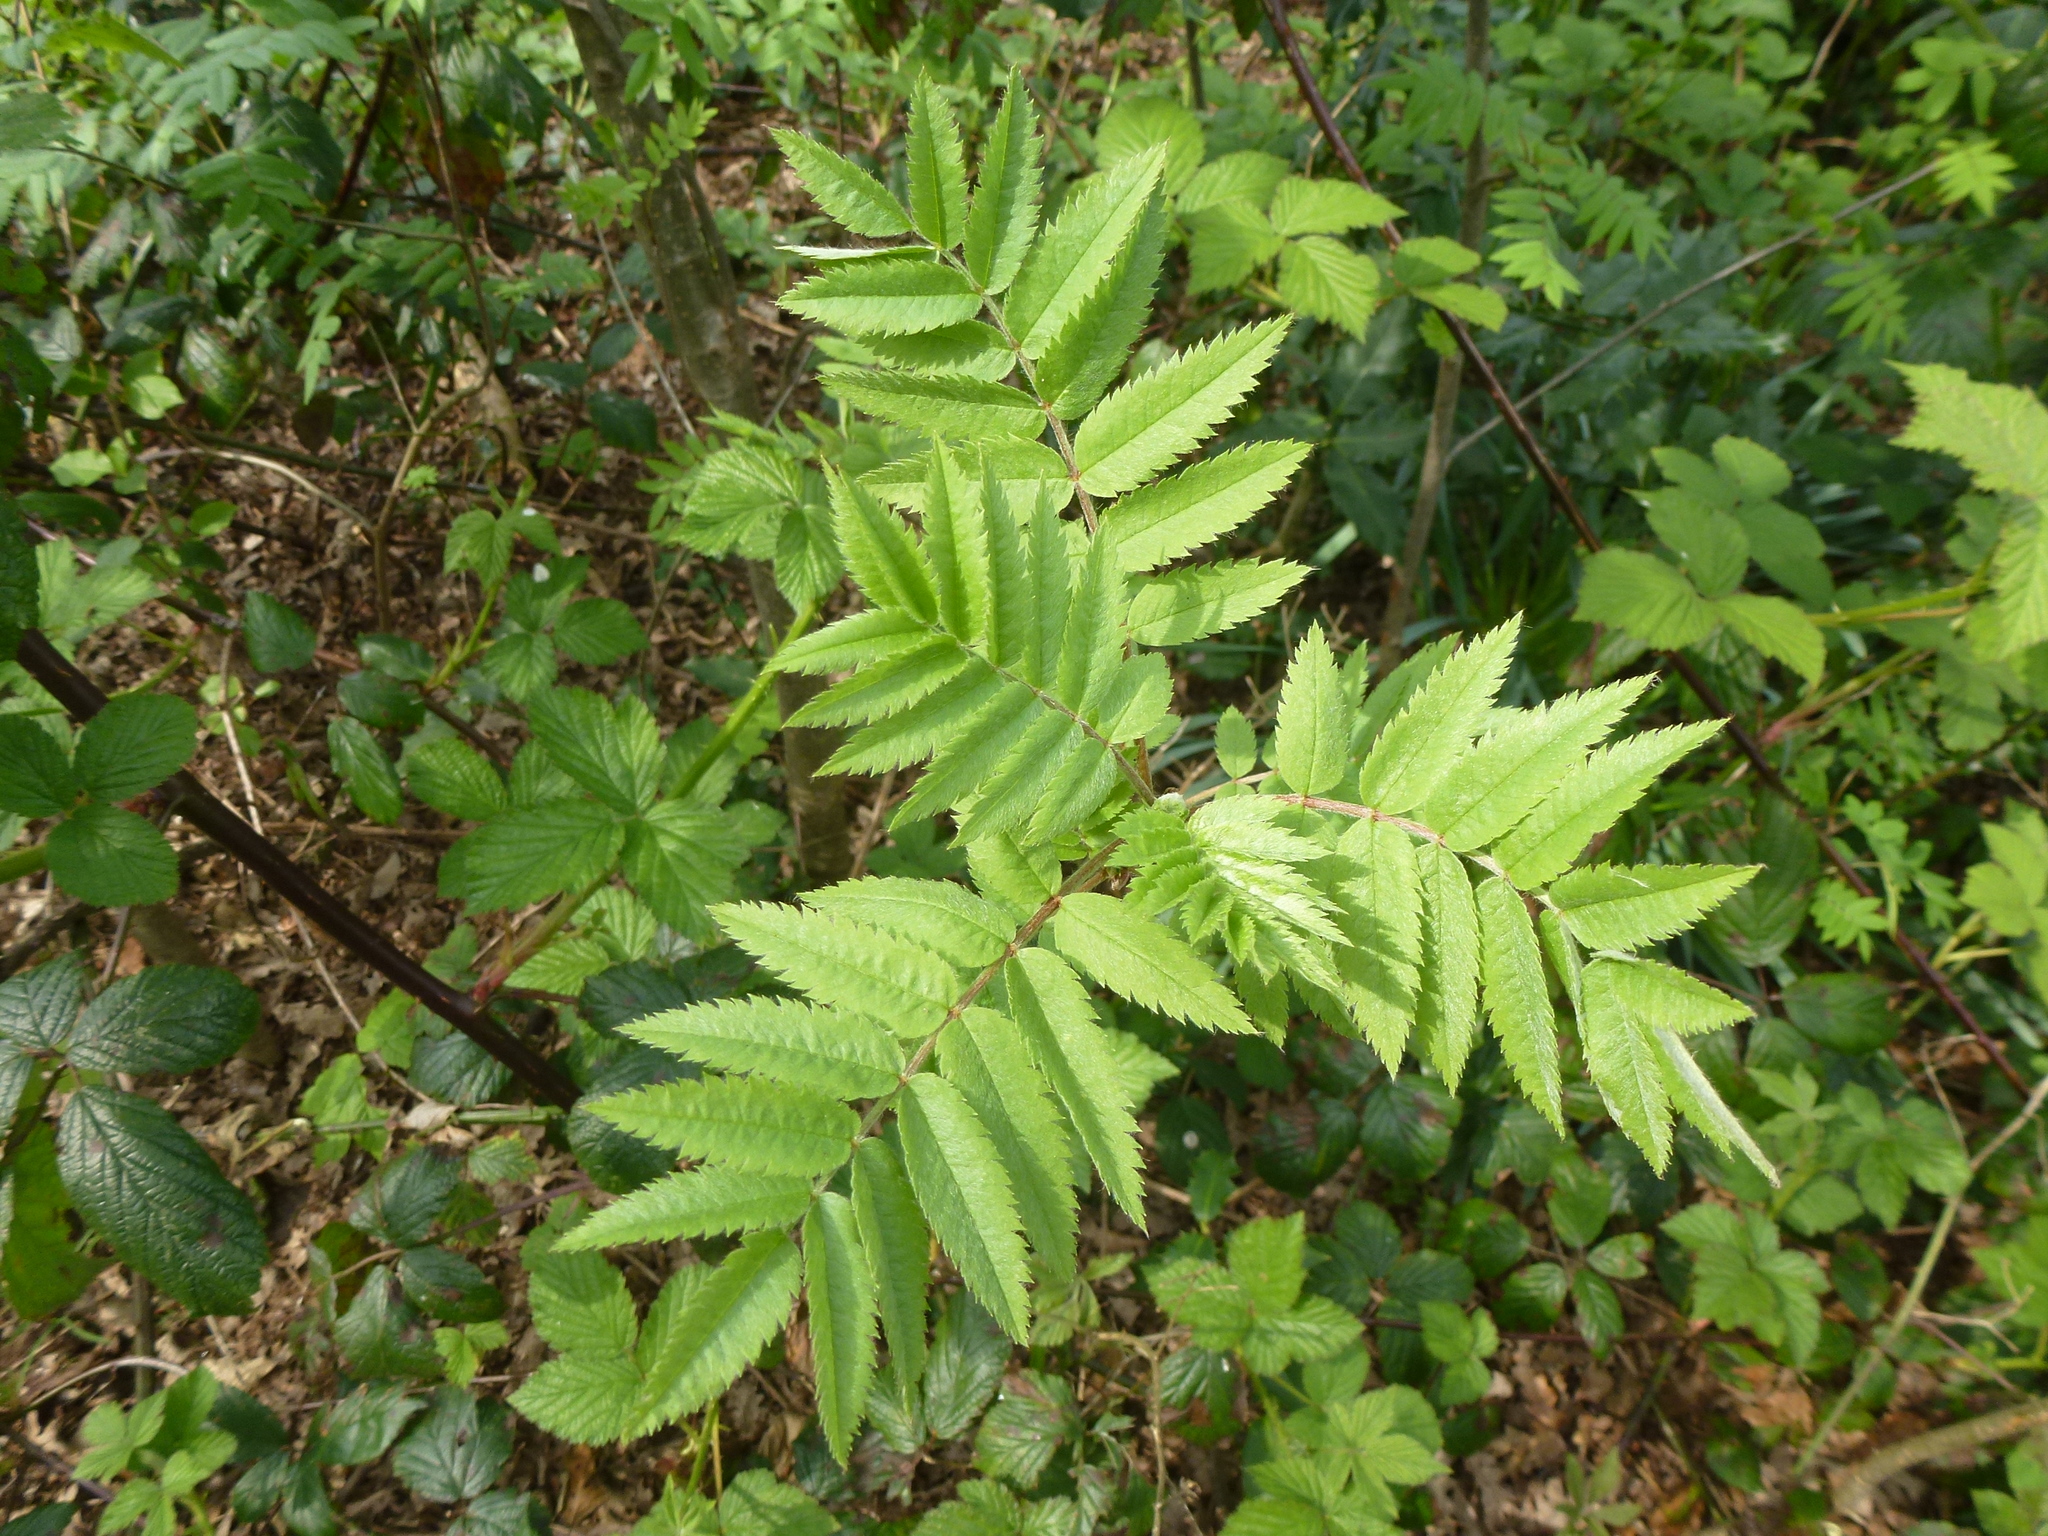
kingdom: Plantae
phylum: Tracheophyta
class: Magnoliopsida
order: Rosales
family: Rosaceae
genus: Sorbus
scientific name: Sorbus aucuparia
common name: Rowan
